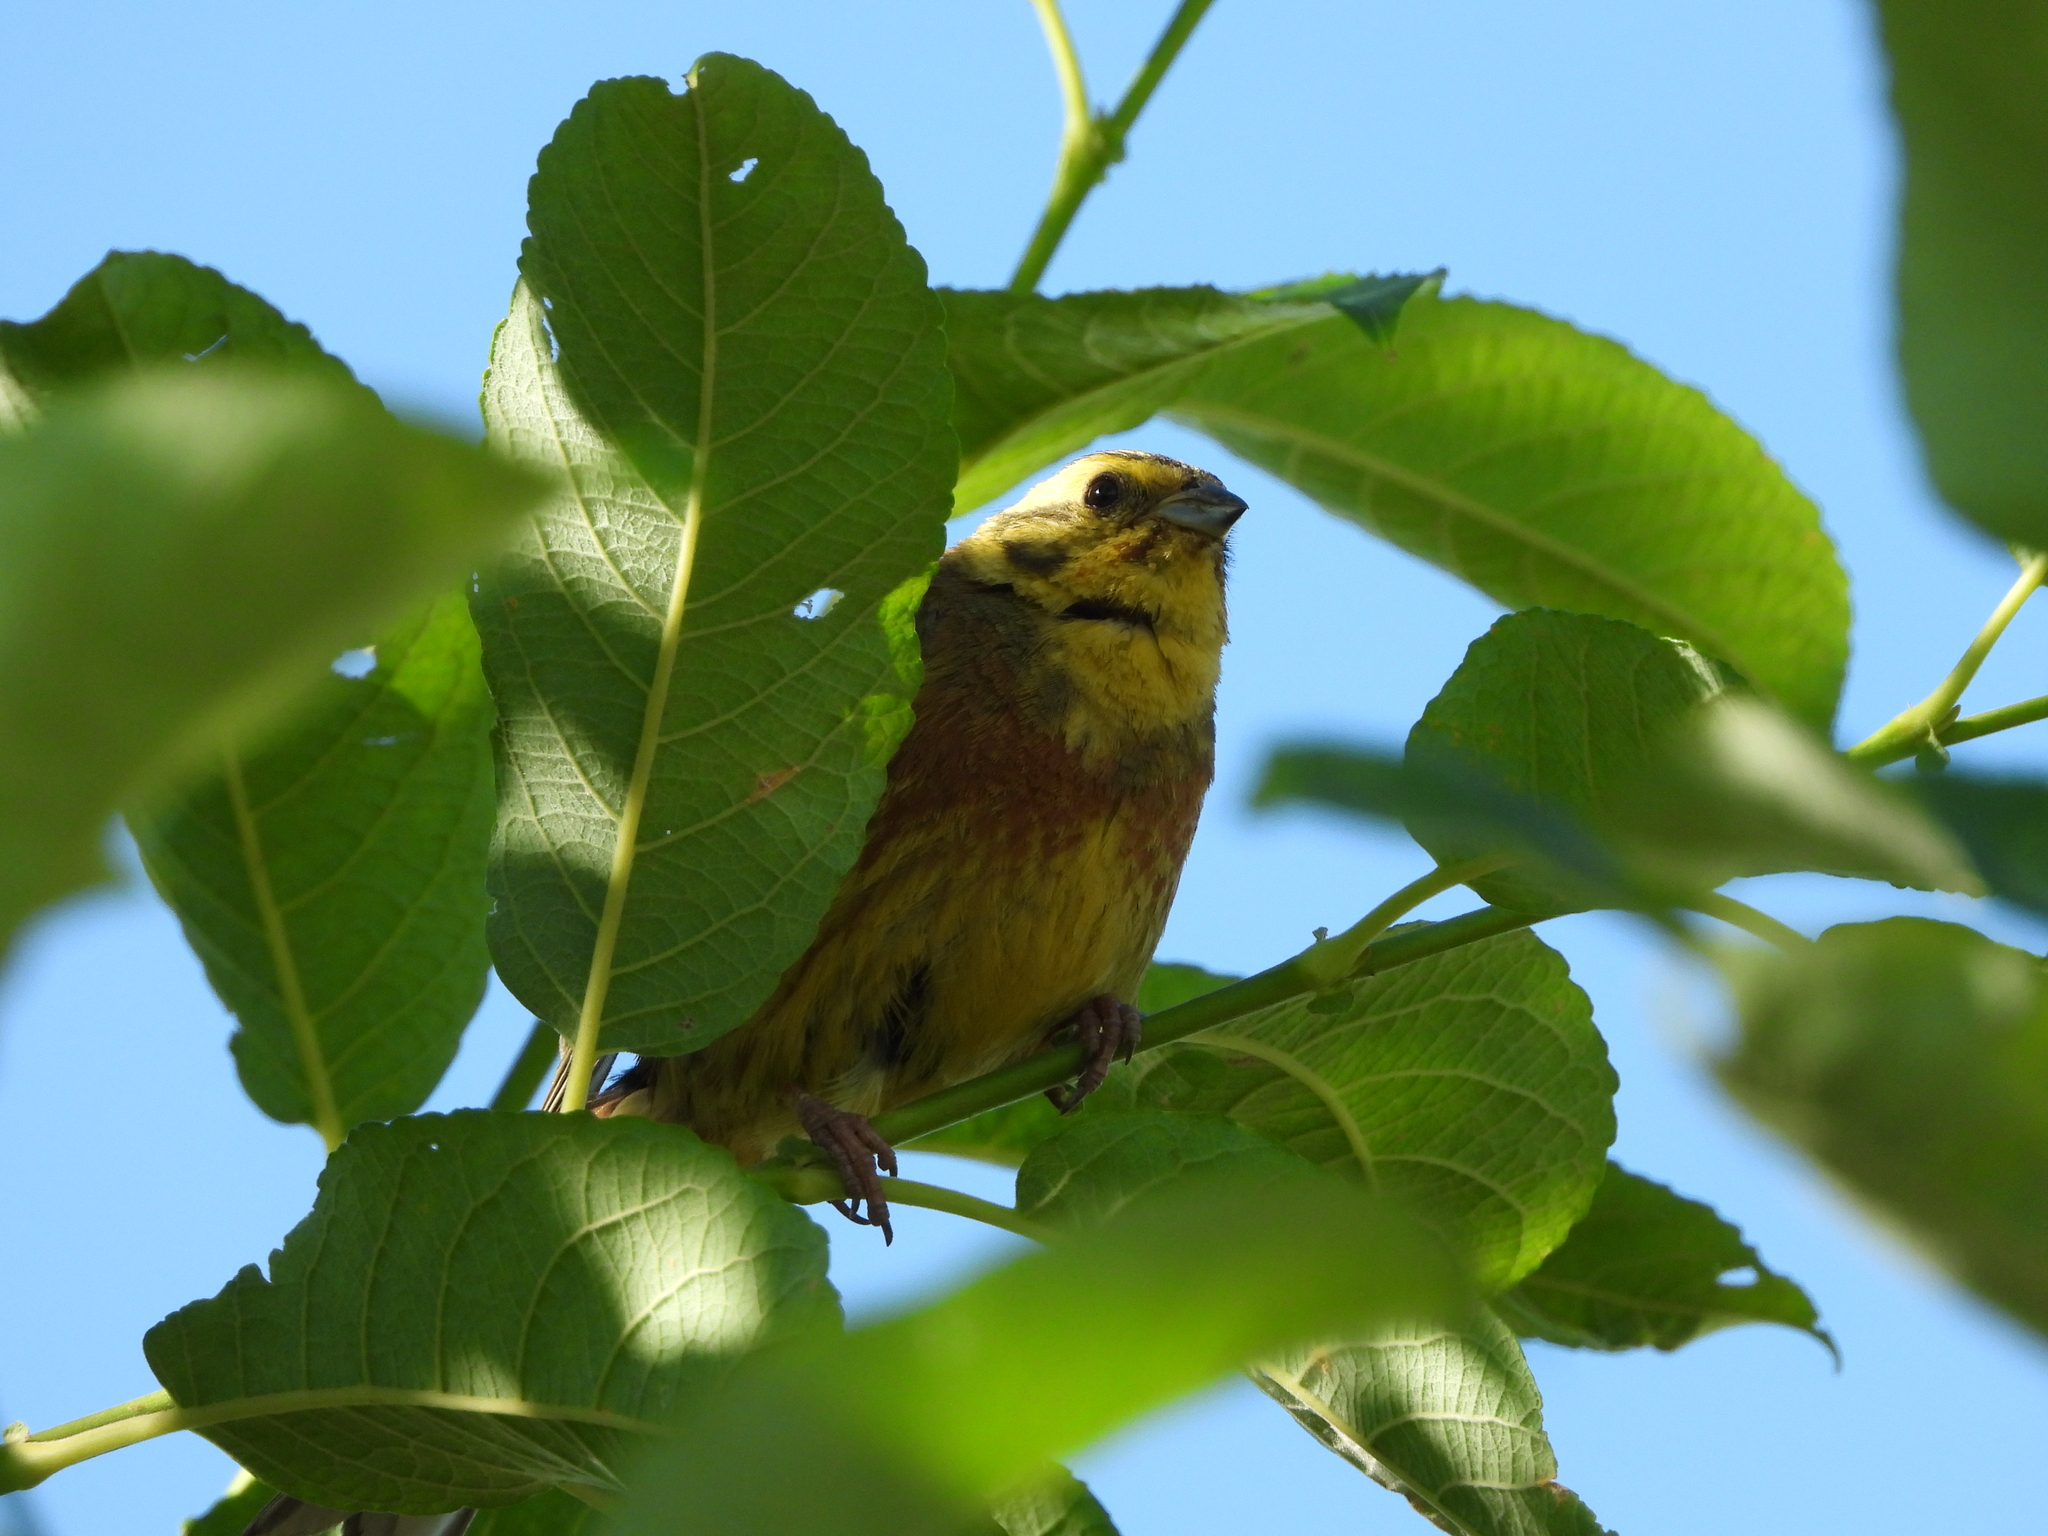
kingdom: Animalia
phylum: Chordata
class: Aves
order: Passeriformes
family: Emberizidae
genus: Emberiza
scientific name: Emberiza citrinella
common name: Yellowhammer
